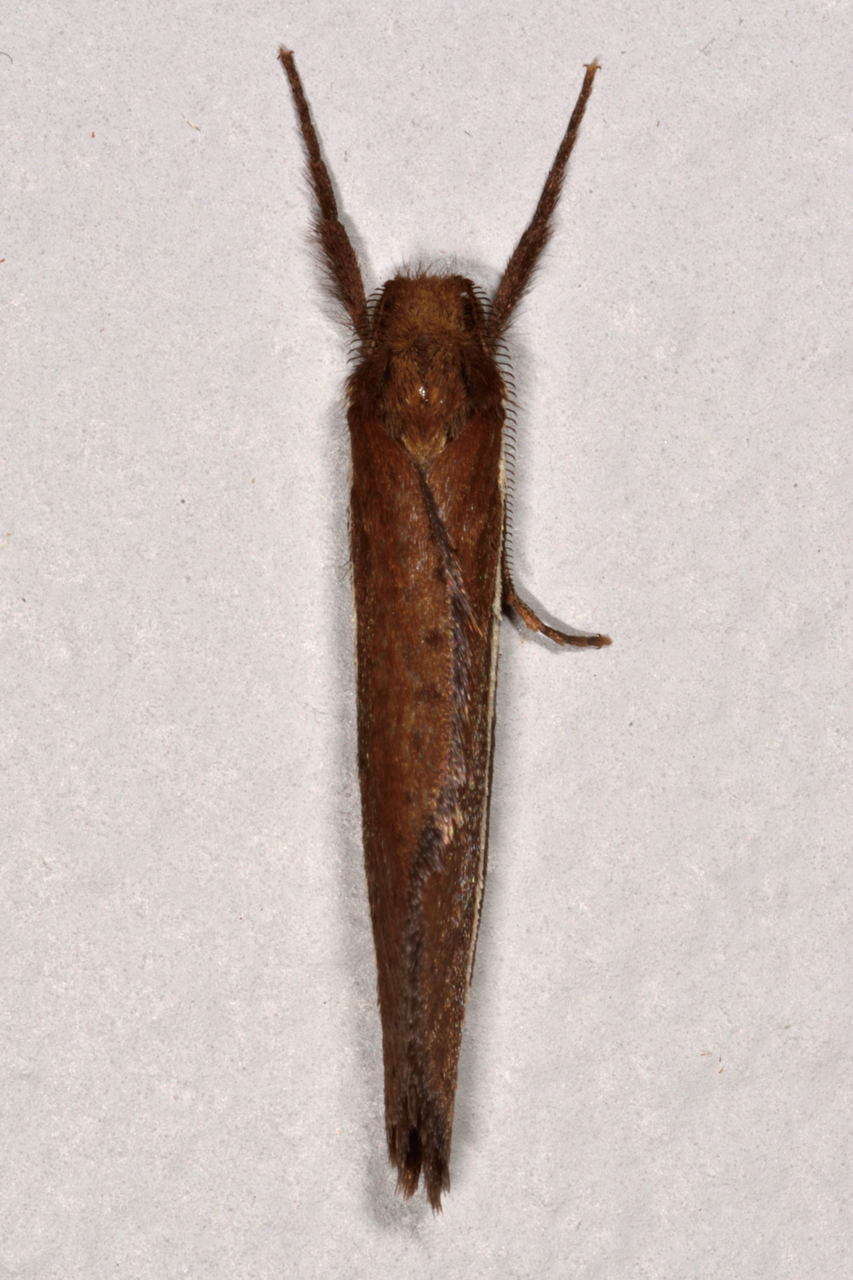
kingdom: Animalia
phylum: Arthropoda
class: Insecta
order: Lepidoptera
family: Hepialidae
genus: Fraus
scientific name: Fraus pteromela
